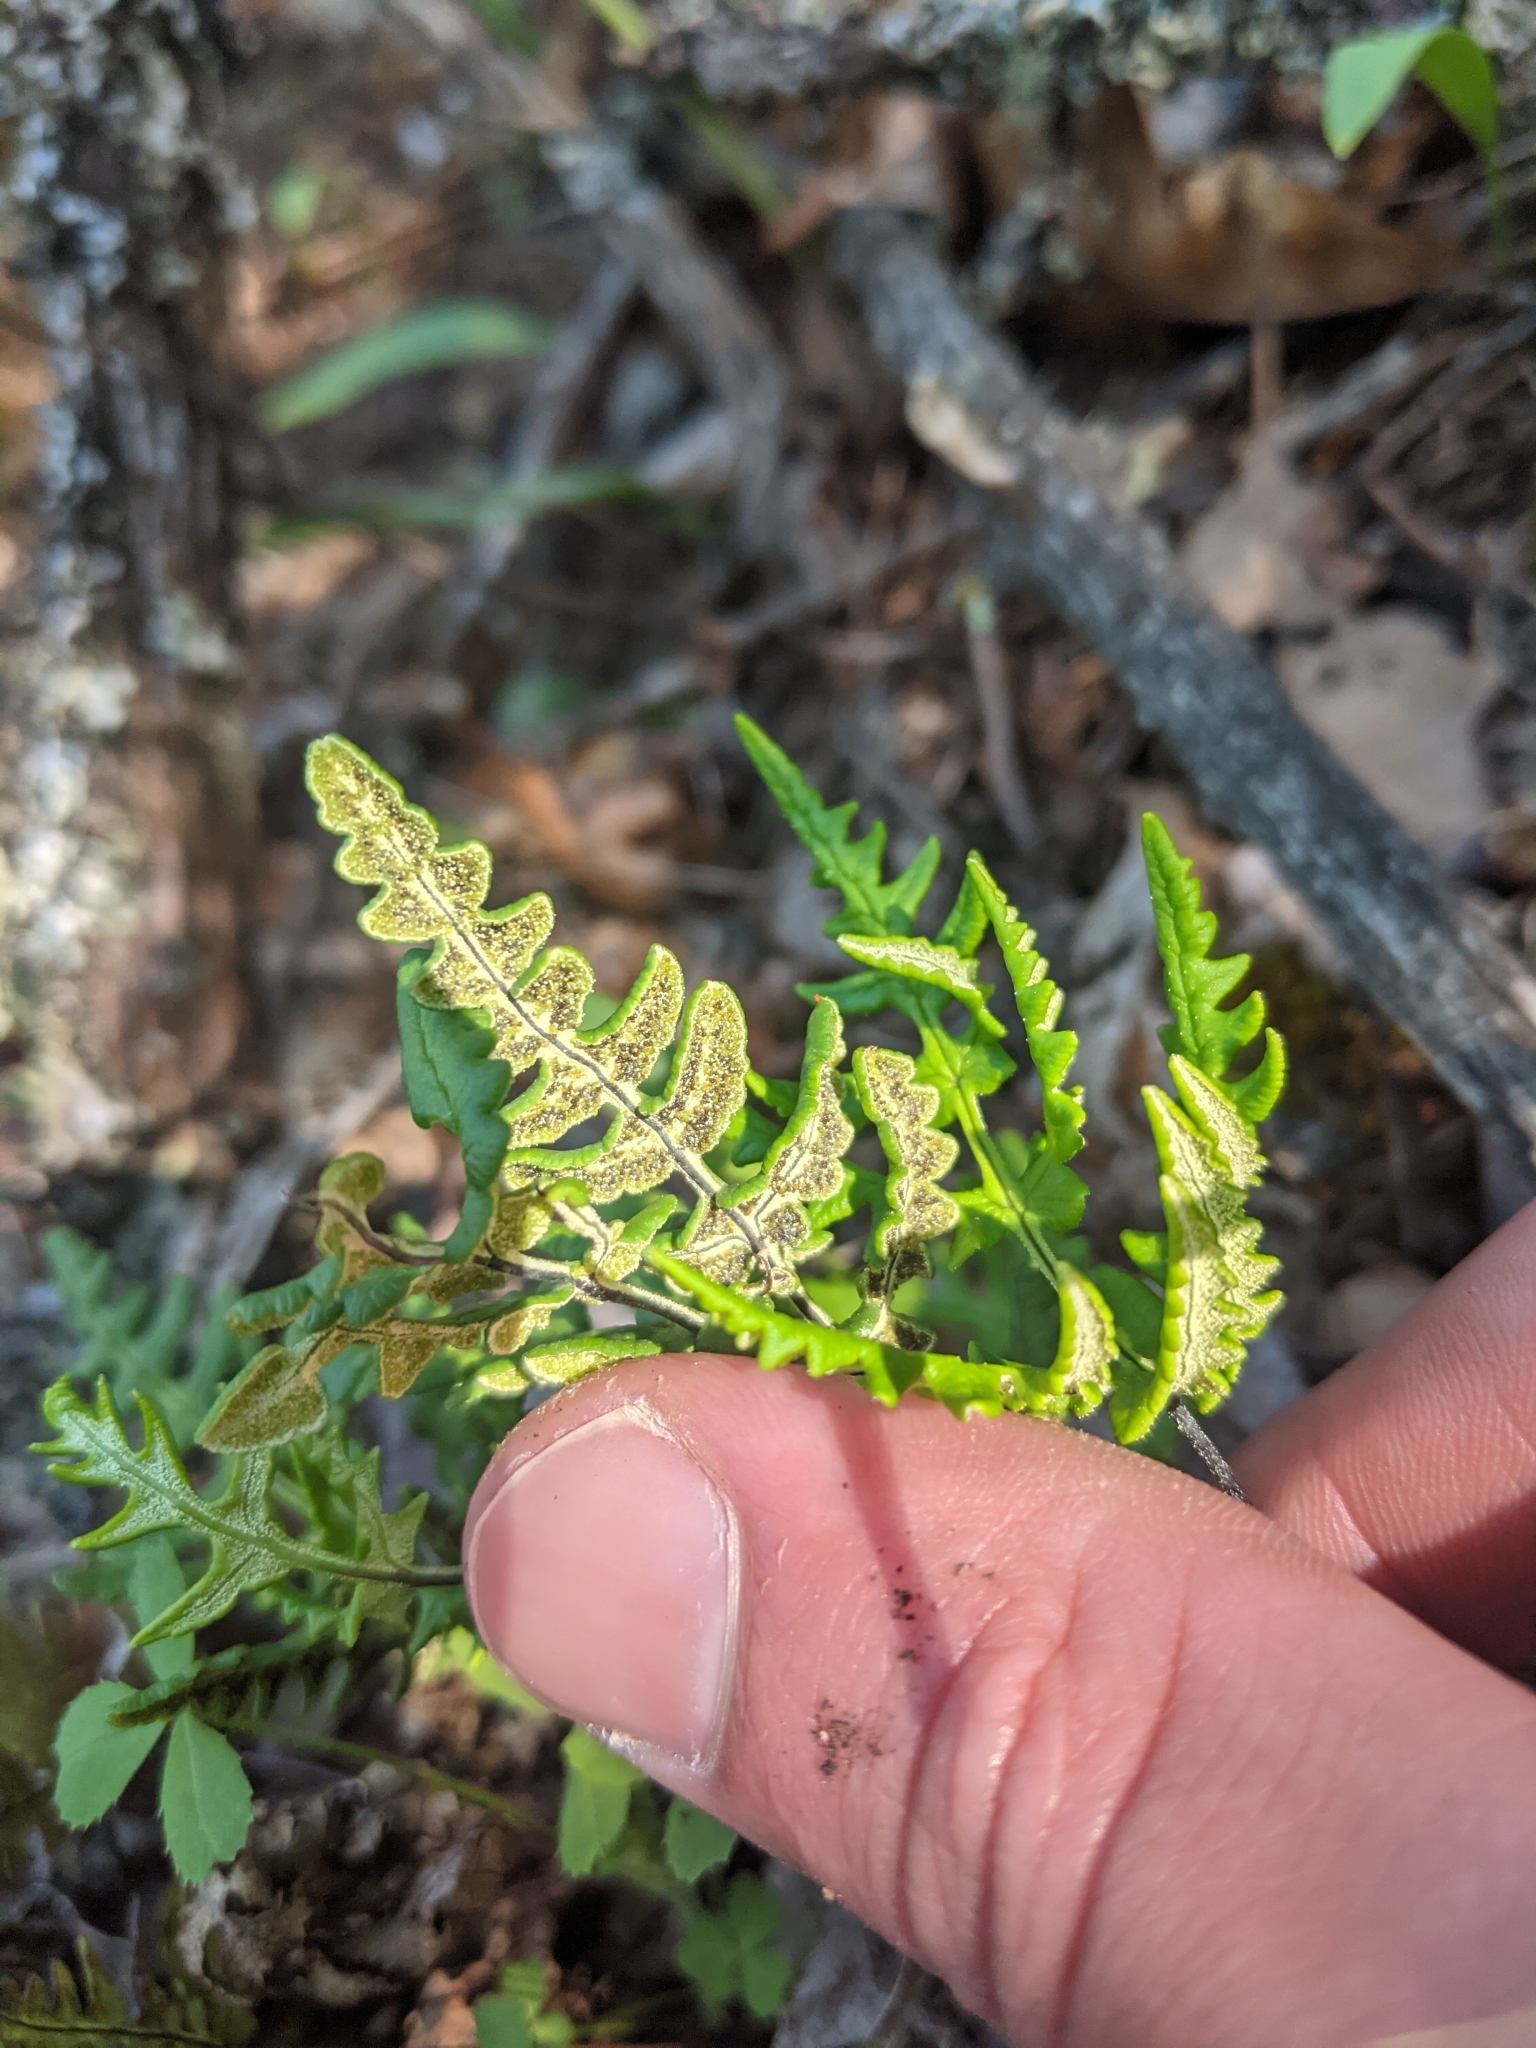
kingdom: Plantae
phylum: Tracheophyta
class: Polypodiopsida
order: Polypodiales
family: Pteridaceae
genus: Pentagramma
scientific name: Pentagramma triangularis
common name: Gold fern
